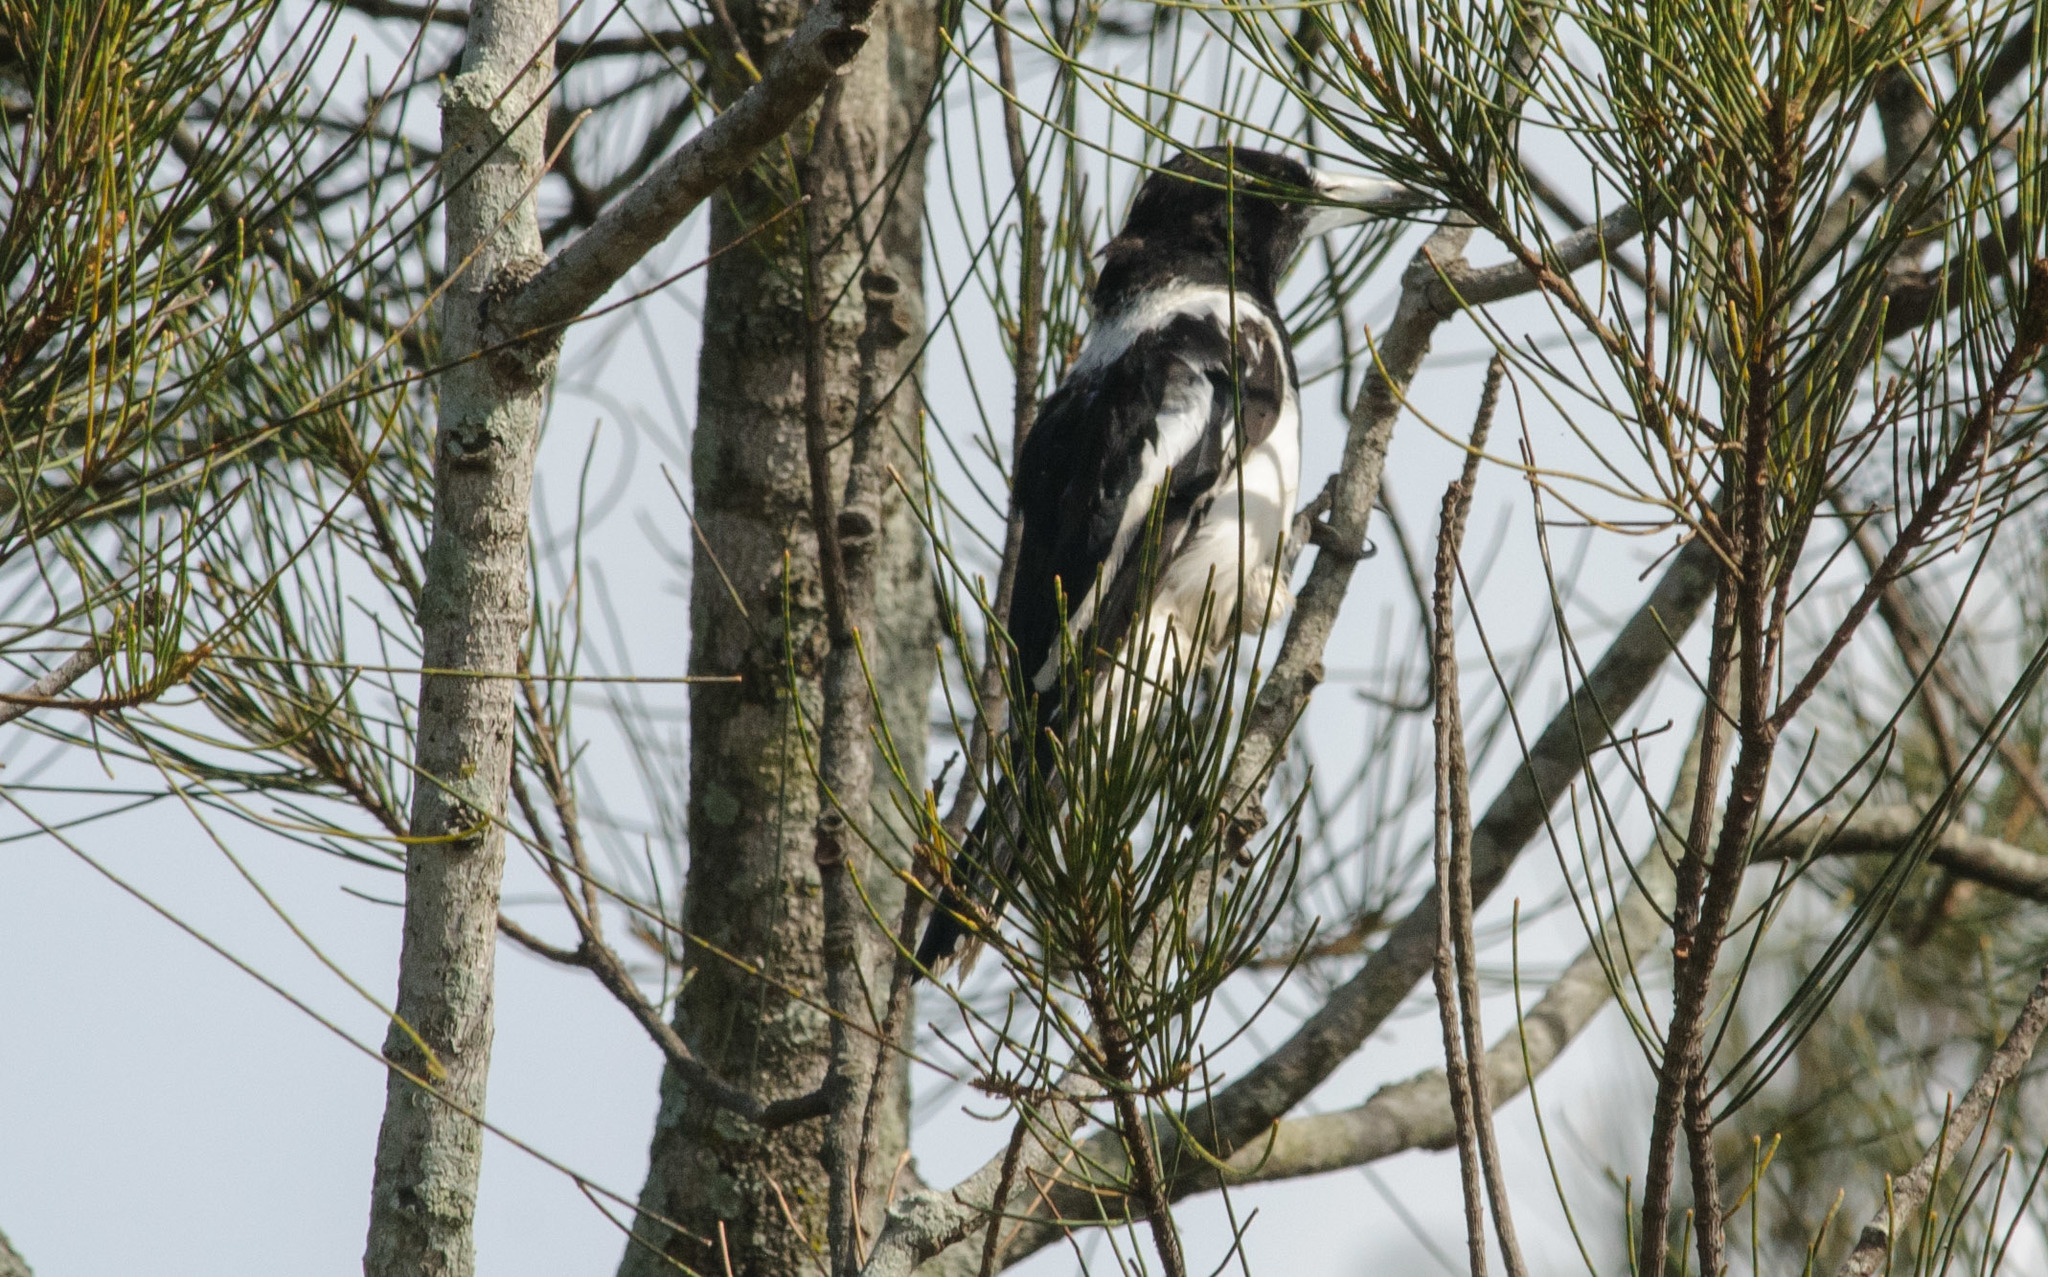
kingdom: Animalia
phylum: Chordata
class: Aves
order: Passeriformes
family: Cracticidae
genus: Cracticus
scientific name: Cracticus nigrogularis
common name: Pied butcherbird
